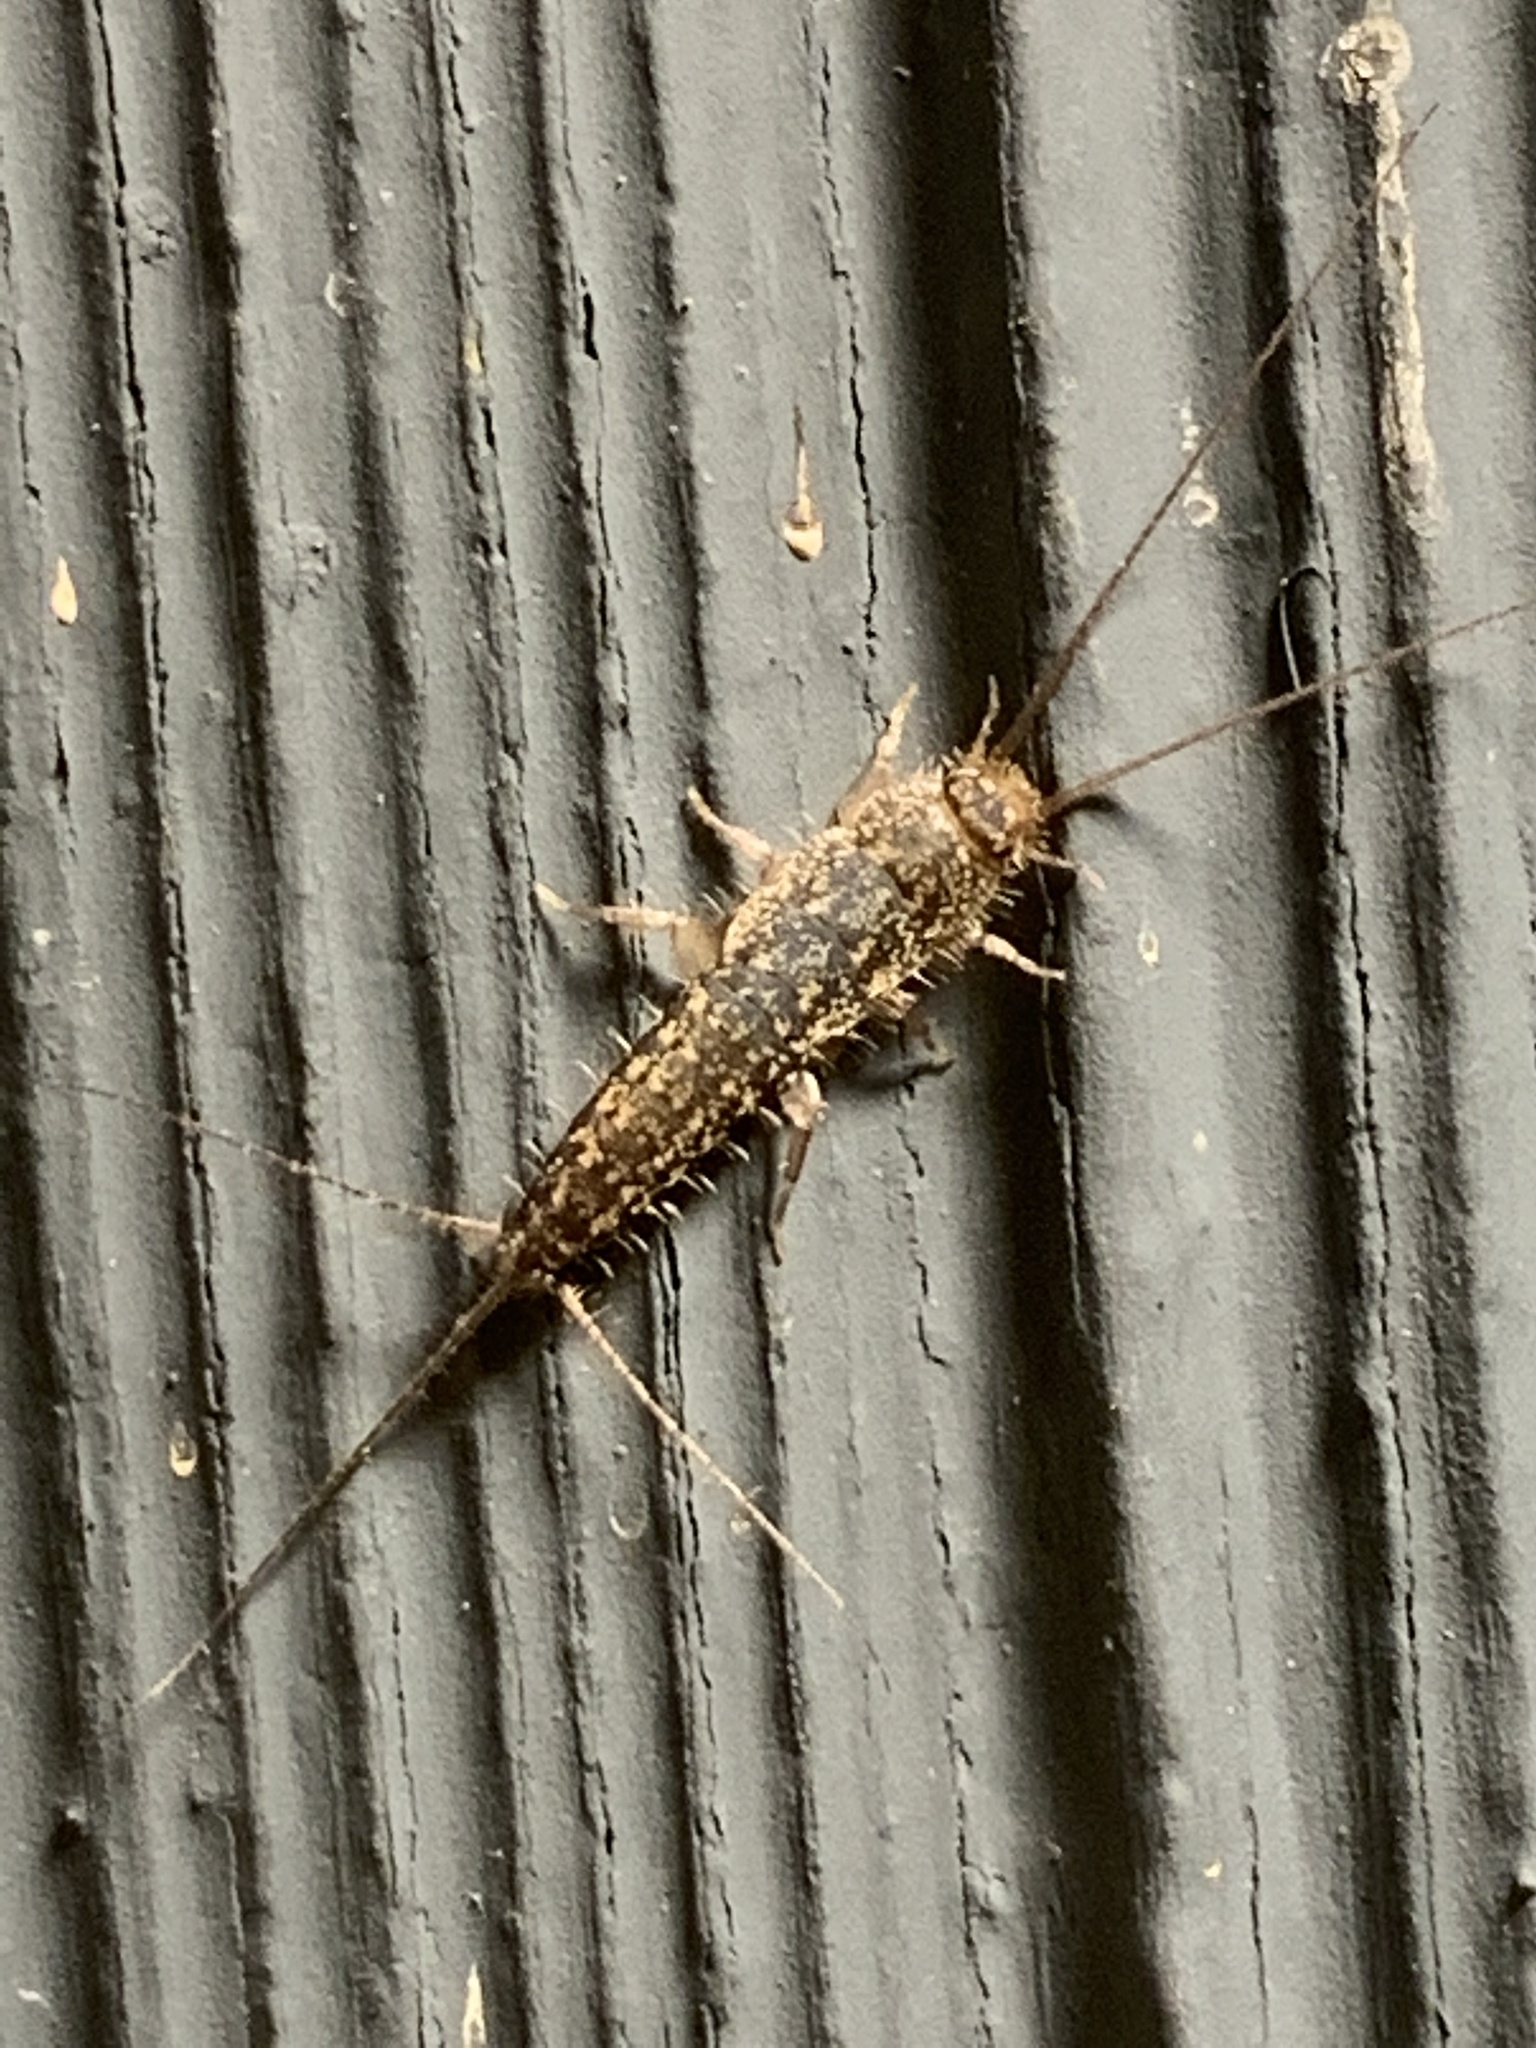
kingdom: Animalia
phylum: Arthropoda
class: Insecta
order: Zygentoma
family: Lepismatidae
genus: Ctenolepisma
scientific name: Ctenolepisma lineata
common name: Four-lined silverfish
